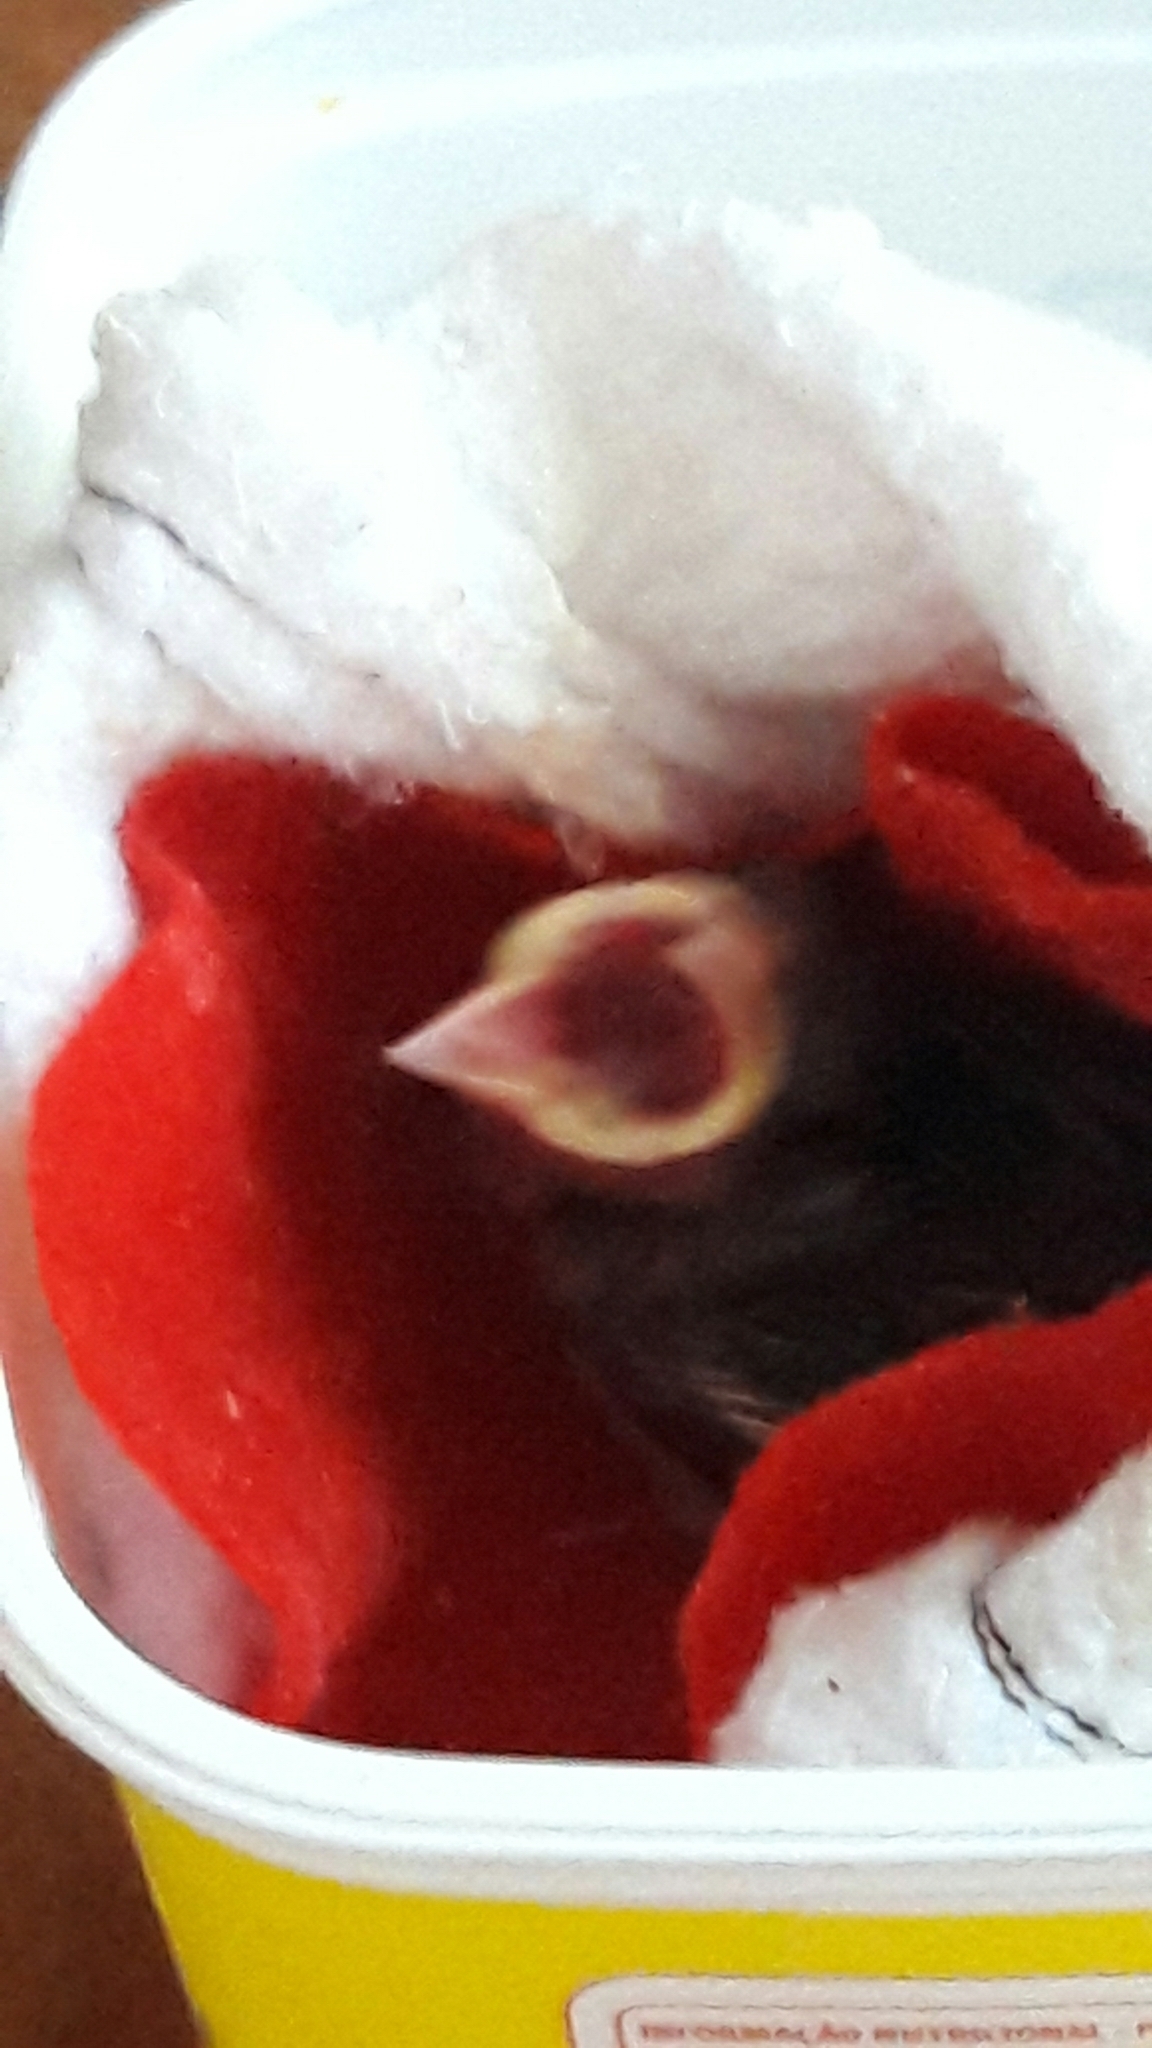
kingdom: Animalia
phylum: Chordata
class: Aves
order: Passeriformes
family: Passeridae
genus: Passer
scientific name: Passer domesticus
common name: House sparrow
